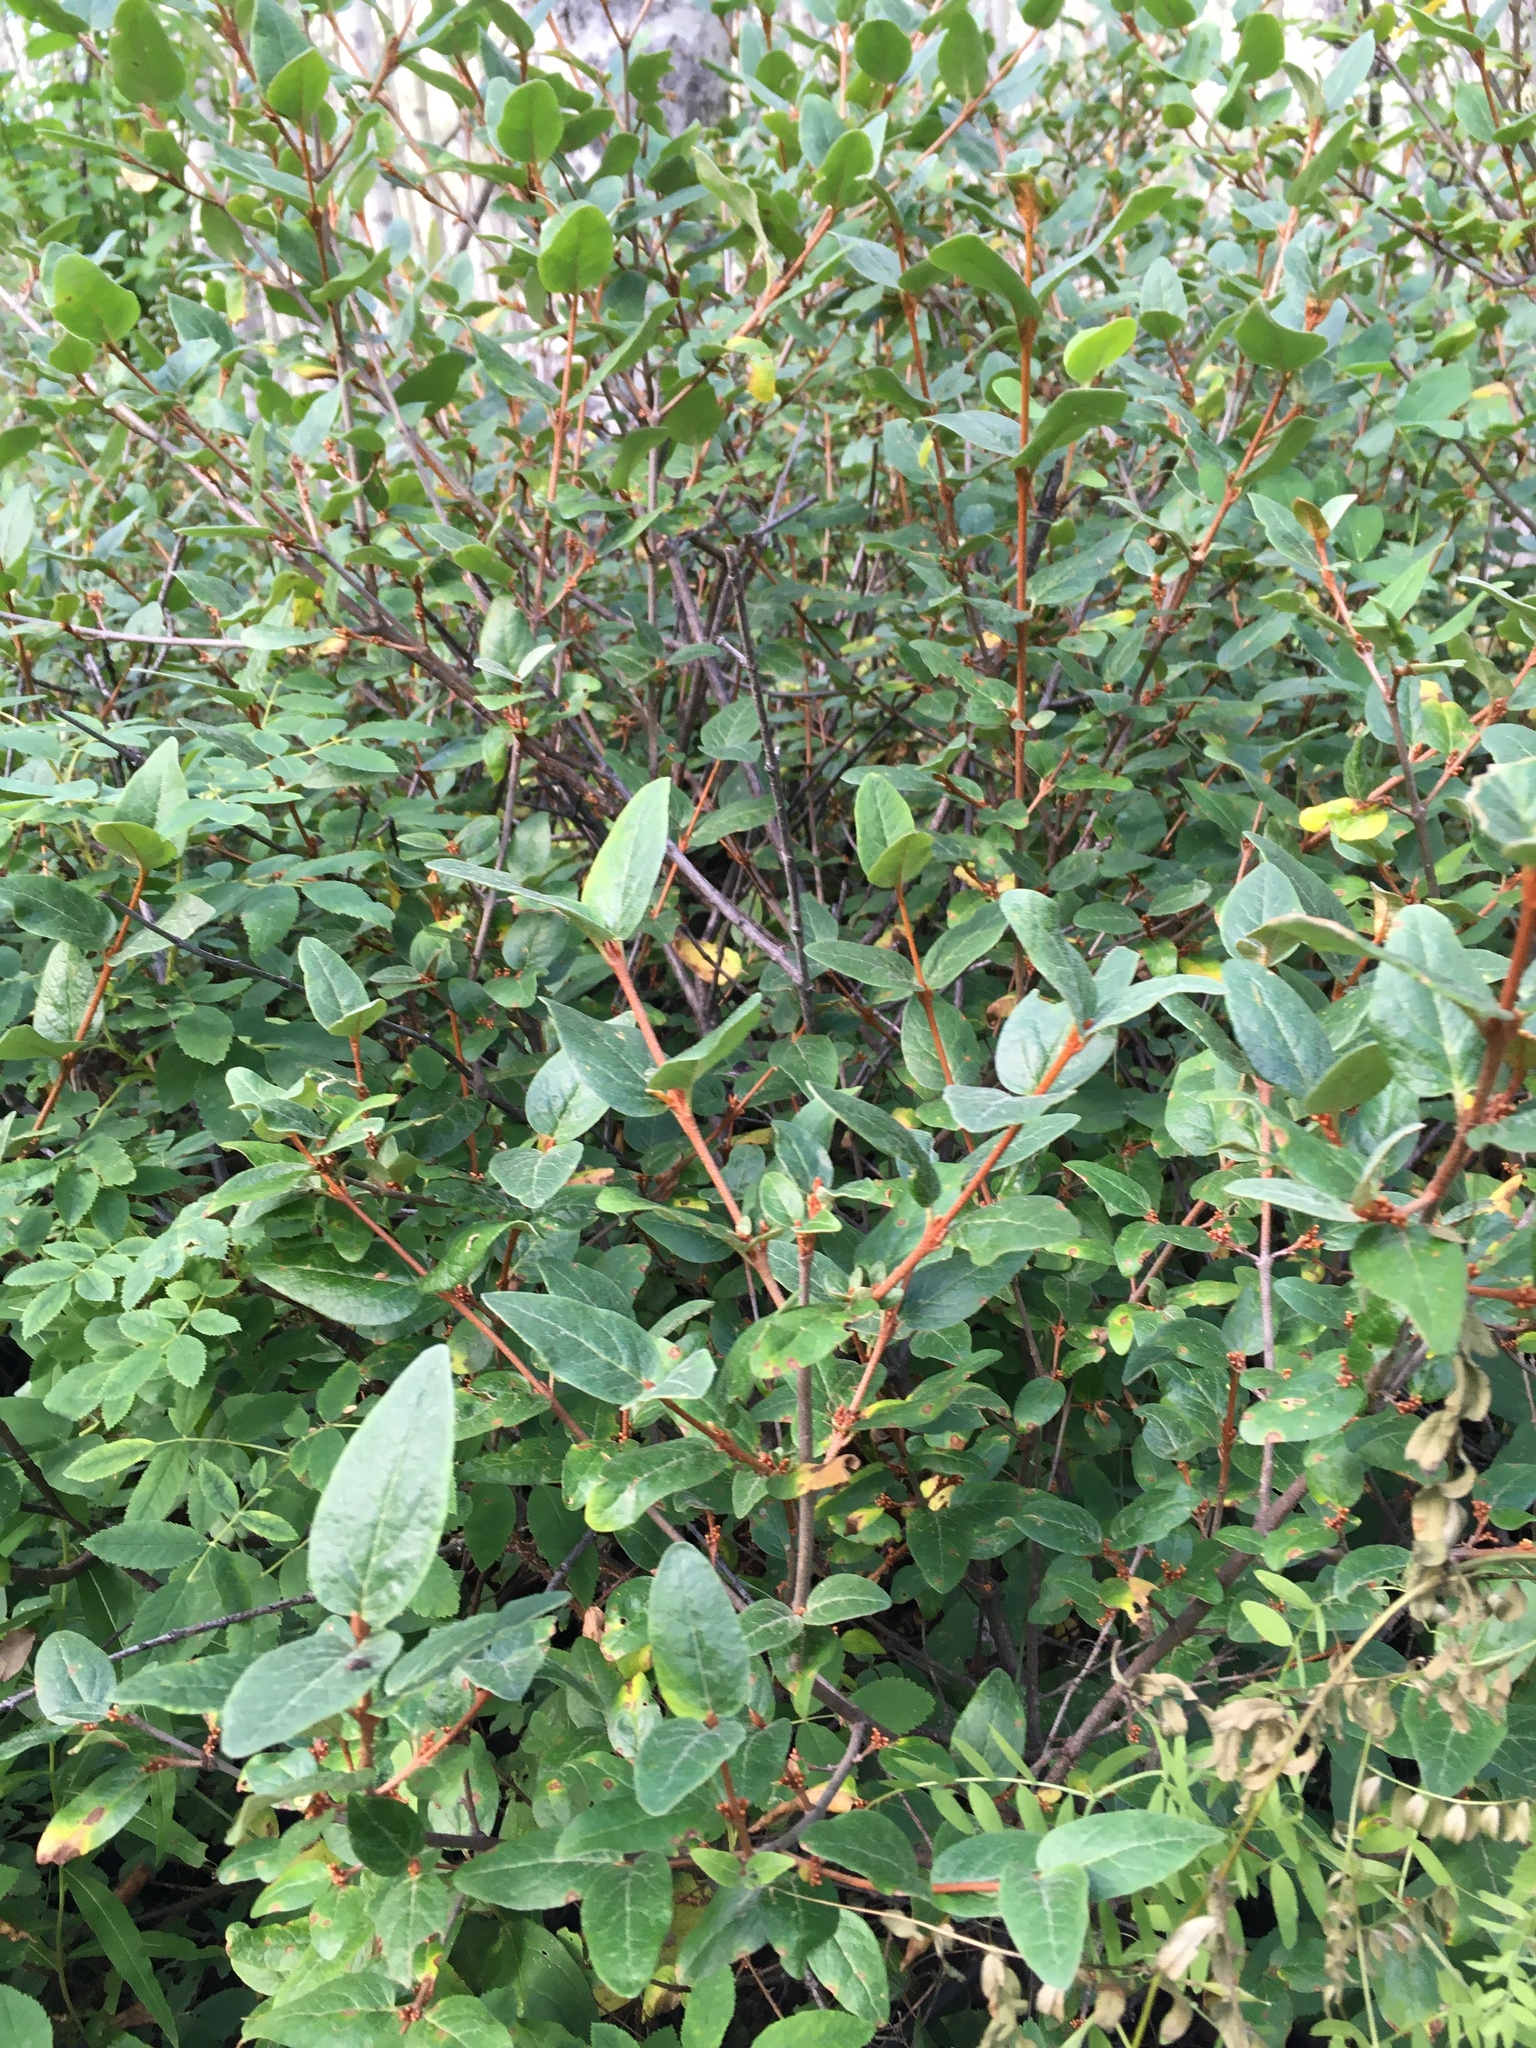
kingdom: Plantae
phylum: Tracheophyta
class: Magnoliopsida
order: Rosales
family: Elaeagnaceae
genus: Shepherdia
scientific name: Shepherdia canadensis
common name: Soapberry
